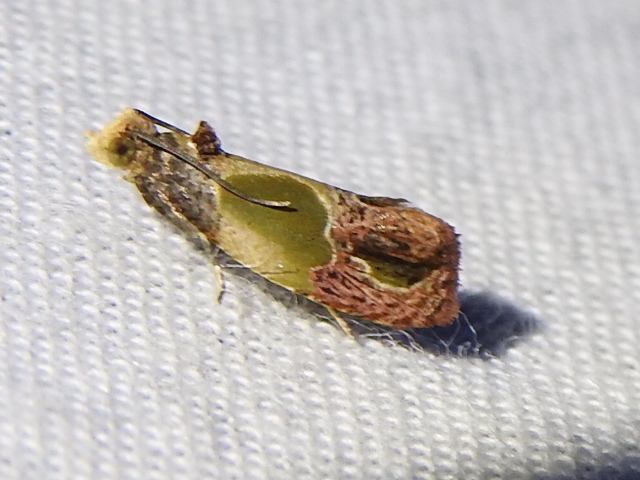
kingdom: Animalia
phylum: Arthropoda
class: Insecta
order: Lepidoptera
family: Tortricidae
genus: Eumarozia
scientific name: Eumarozia malachitana
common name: Sculptured moth
